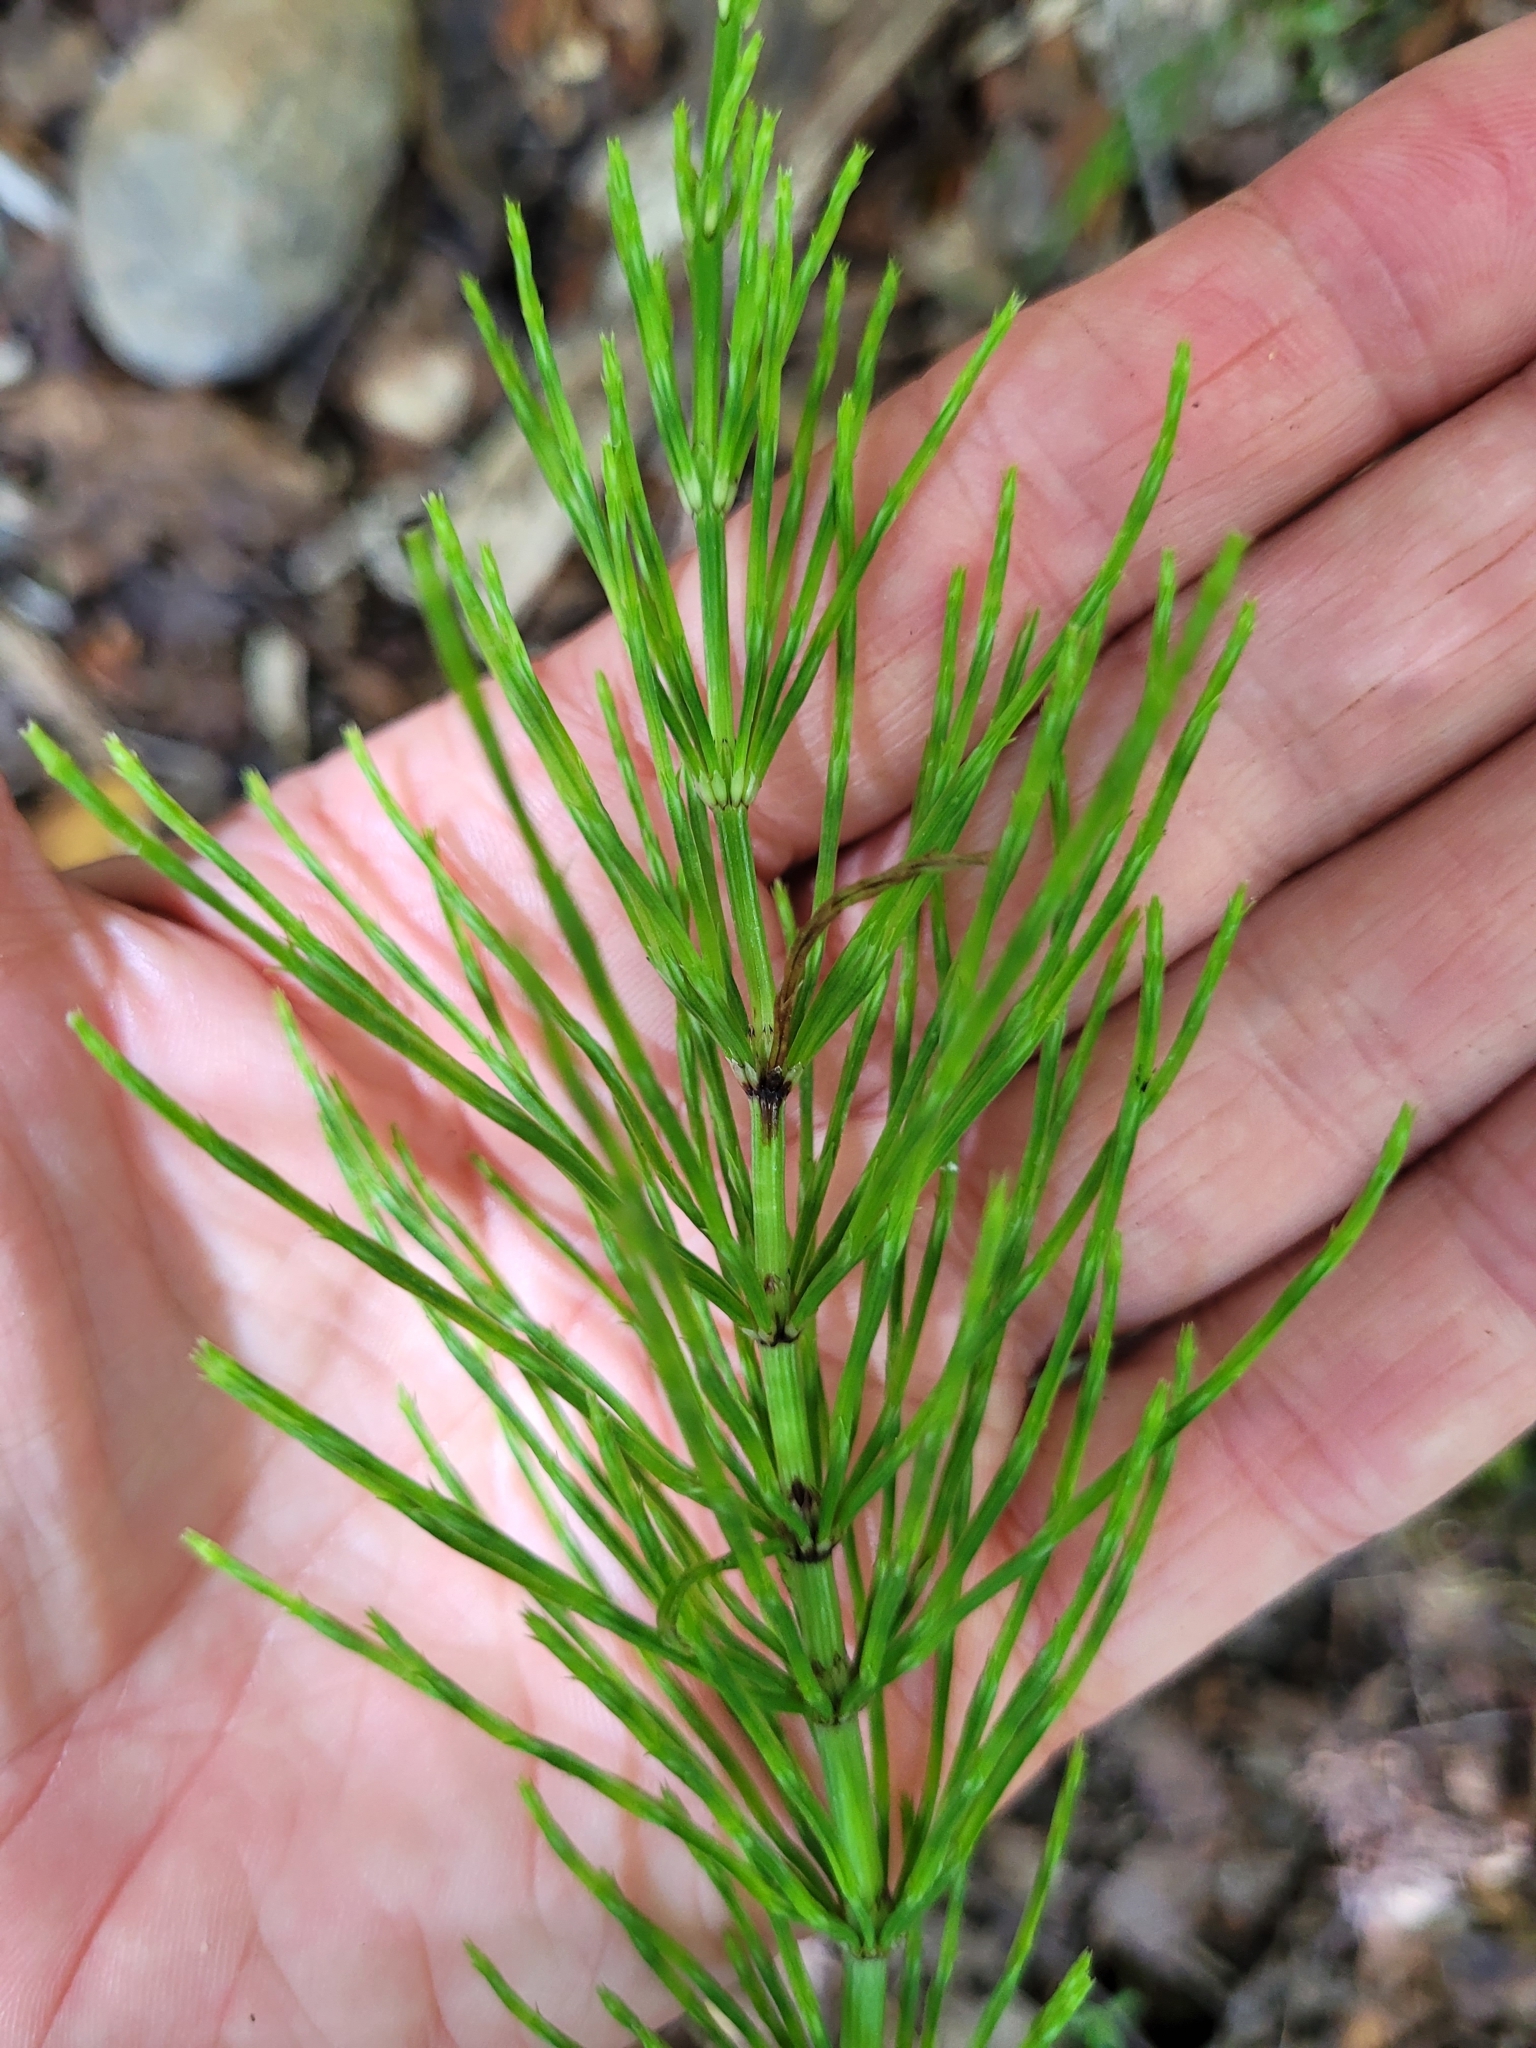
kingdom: Plantae
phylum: Tracheophyta
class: Polypodiopsida
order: Equisetales
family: Equisetaceae
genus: Equisetum
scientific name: Equisetum arvense
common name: Field horsetail
